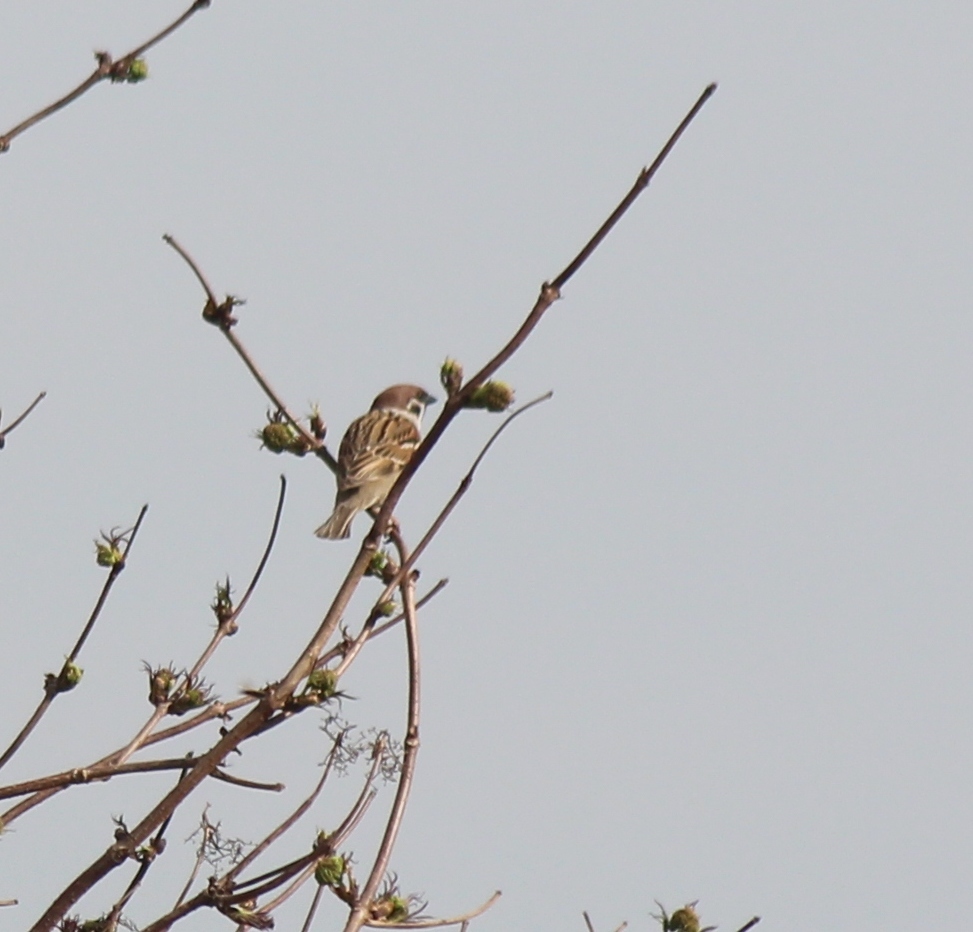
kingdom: Animalia
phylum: Chordata
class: Aves
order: Passeriformes
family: Passeridae
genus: Passer
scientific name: Passer montanus
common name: Eurasian tree sparrow
